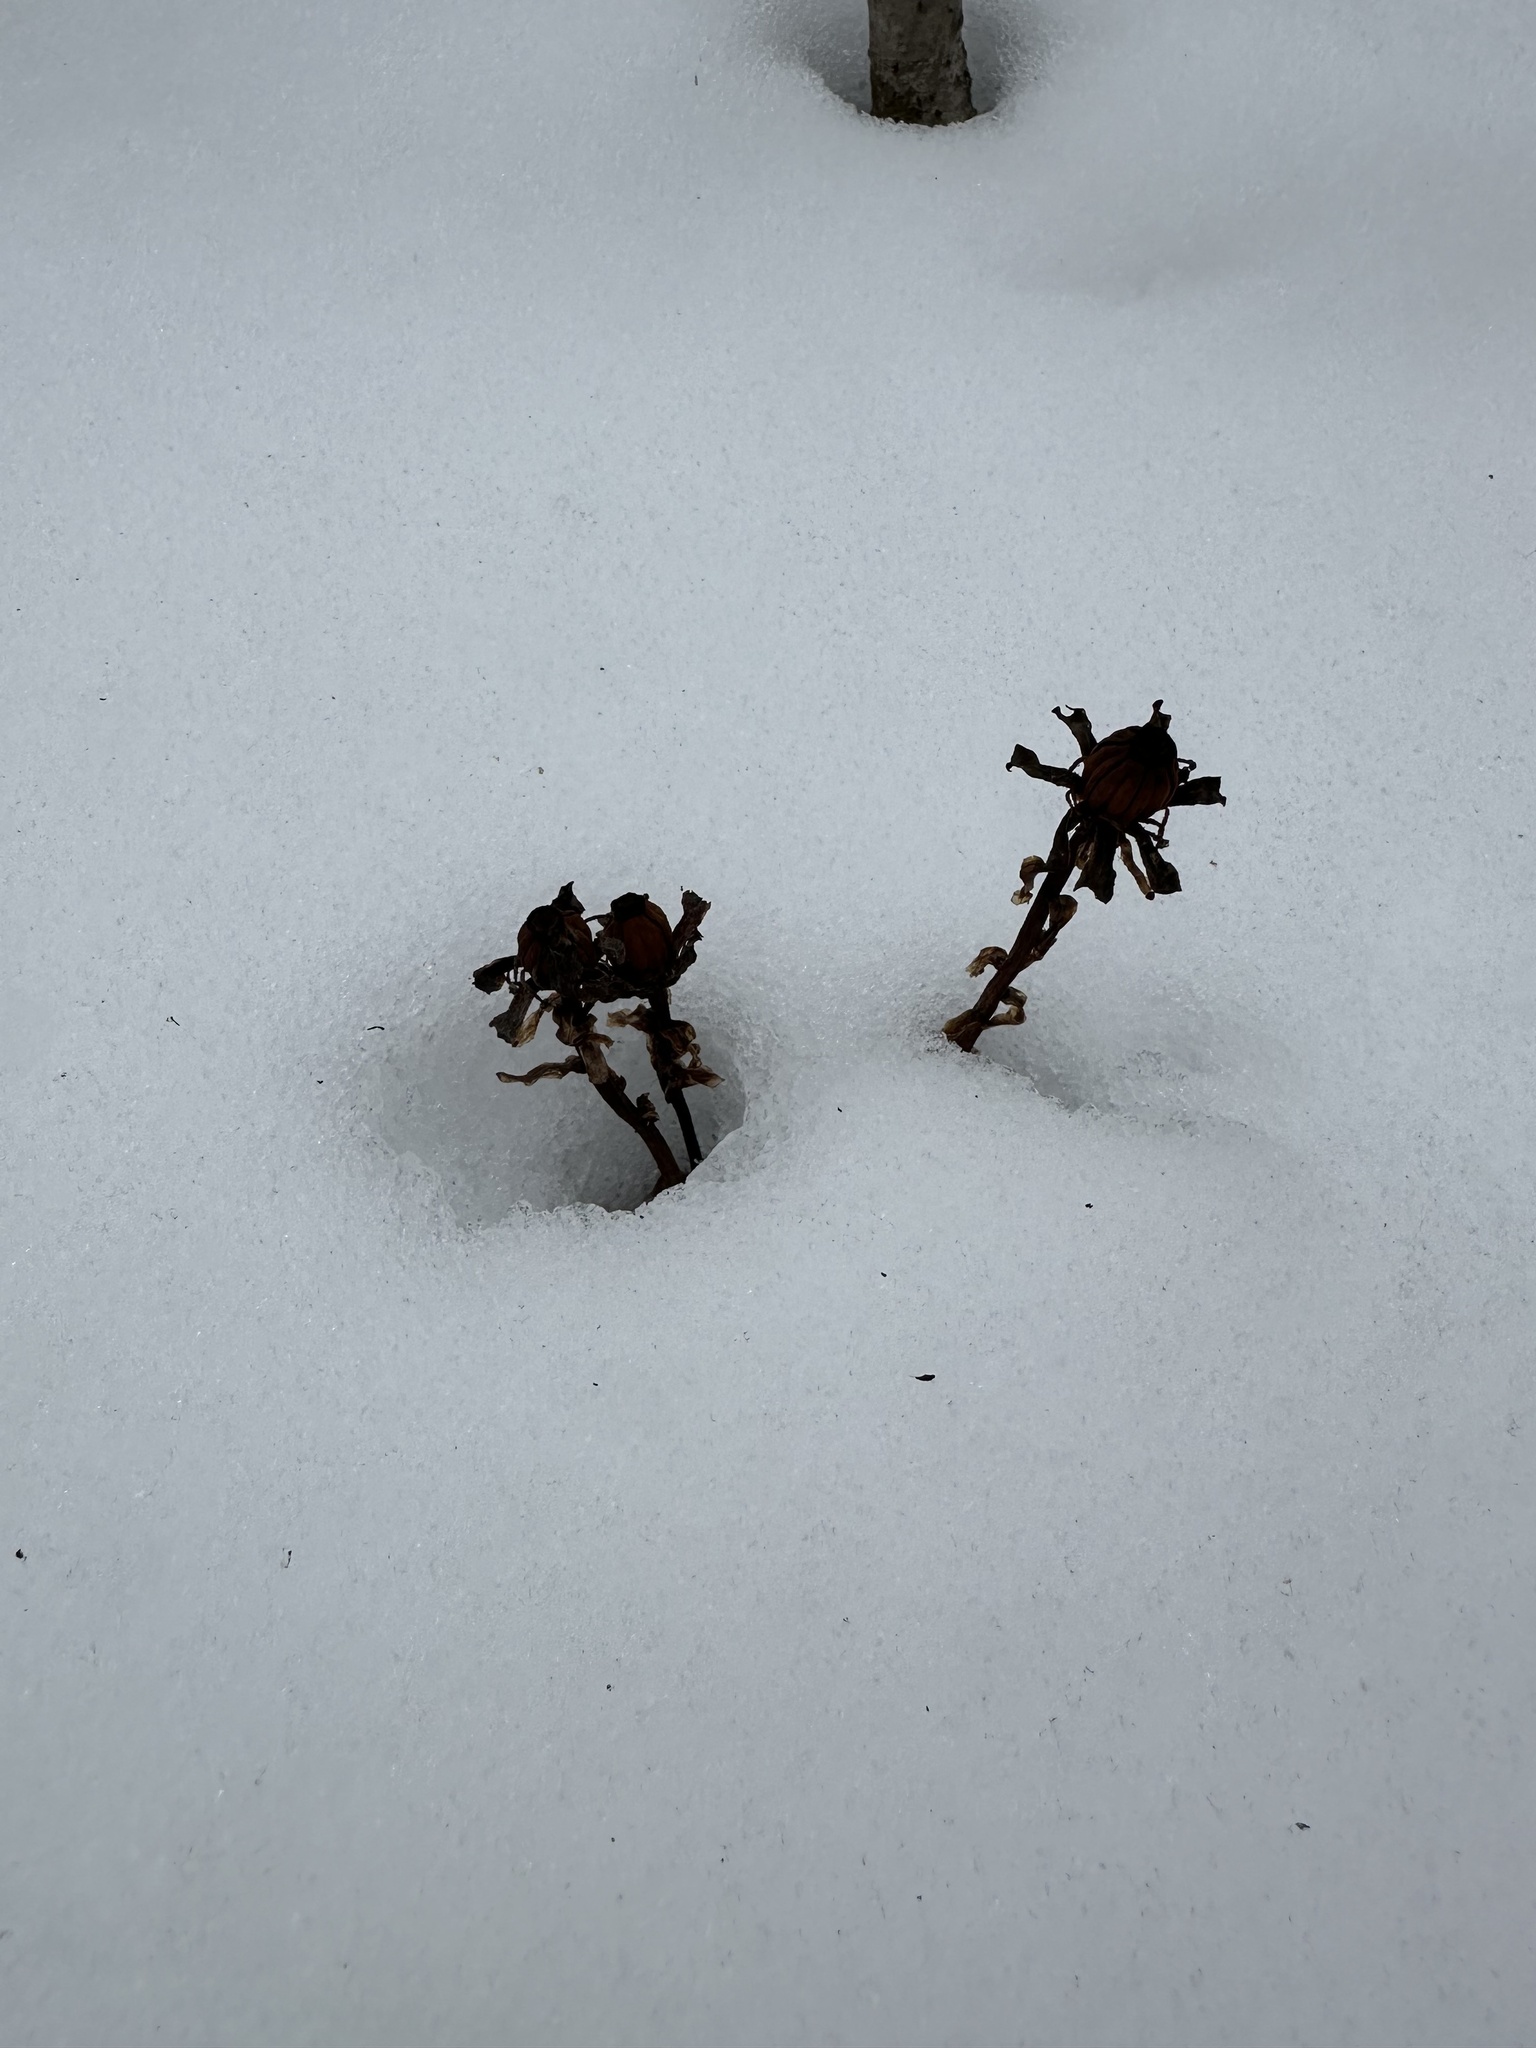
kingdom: Plantae
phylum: Tracheophyta
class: Magnoliopsida
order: Ericales
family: Ericaceae
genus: Monotropa
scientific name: Monotropa uniflora
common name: Convulsion root
